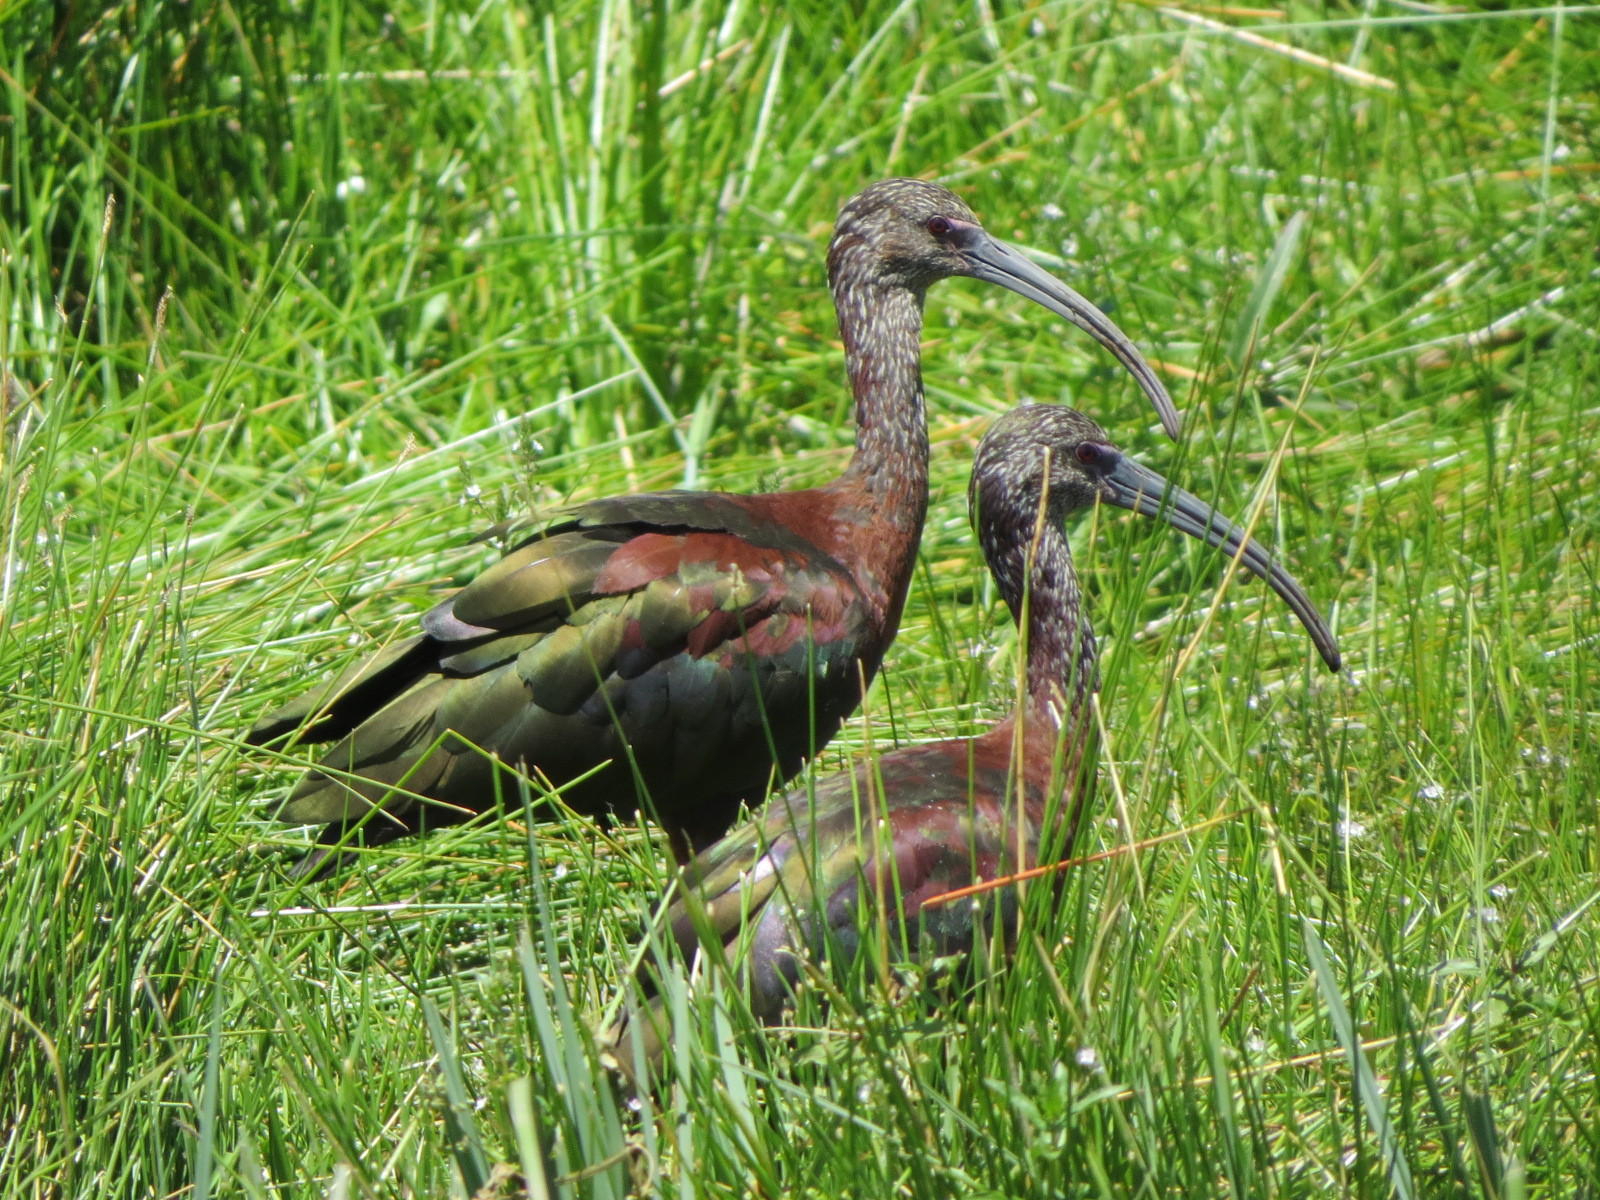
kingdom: Animalia
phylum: Chordata
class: Aves
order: Pelecaniformes
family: Threskiornithidae
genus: Plegadis
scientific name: Plegadis chihi
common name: White-faced ibis
